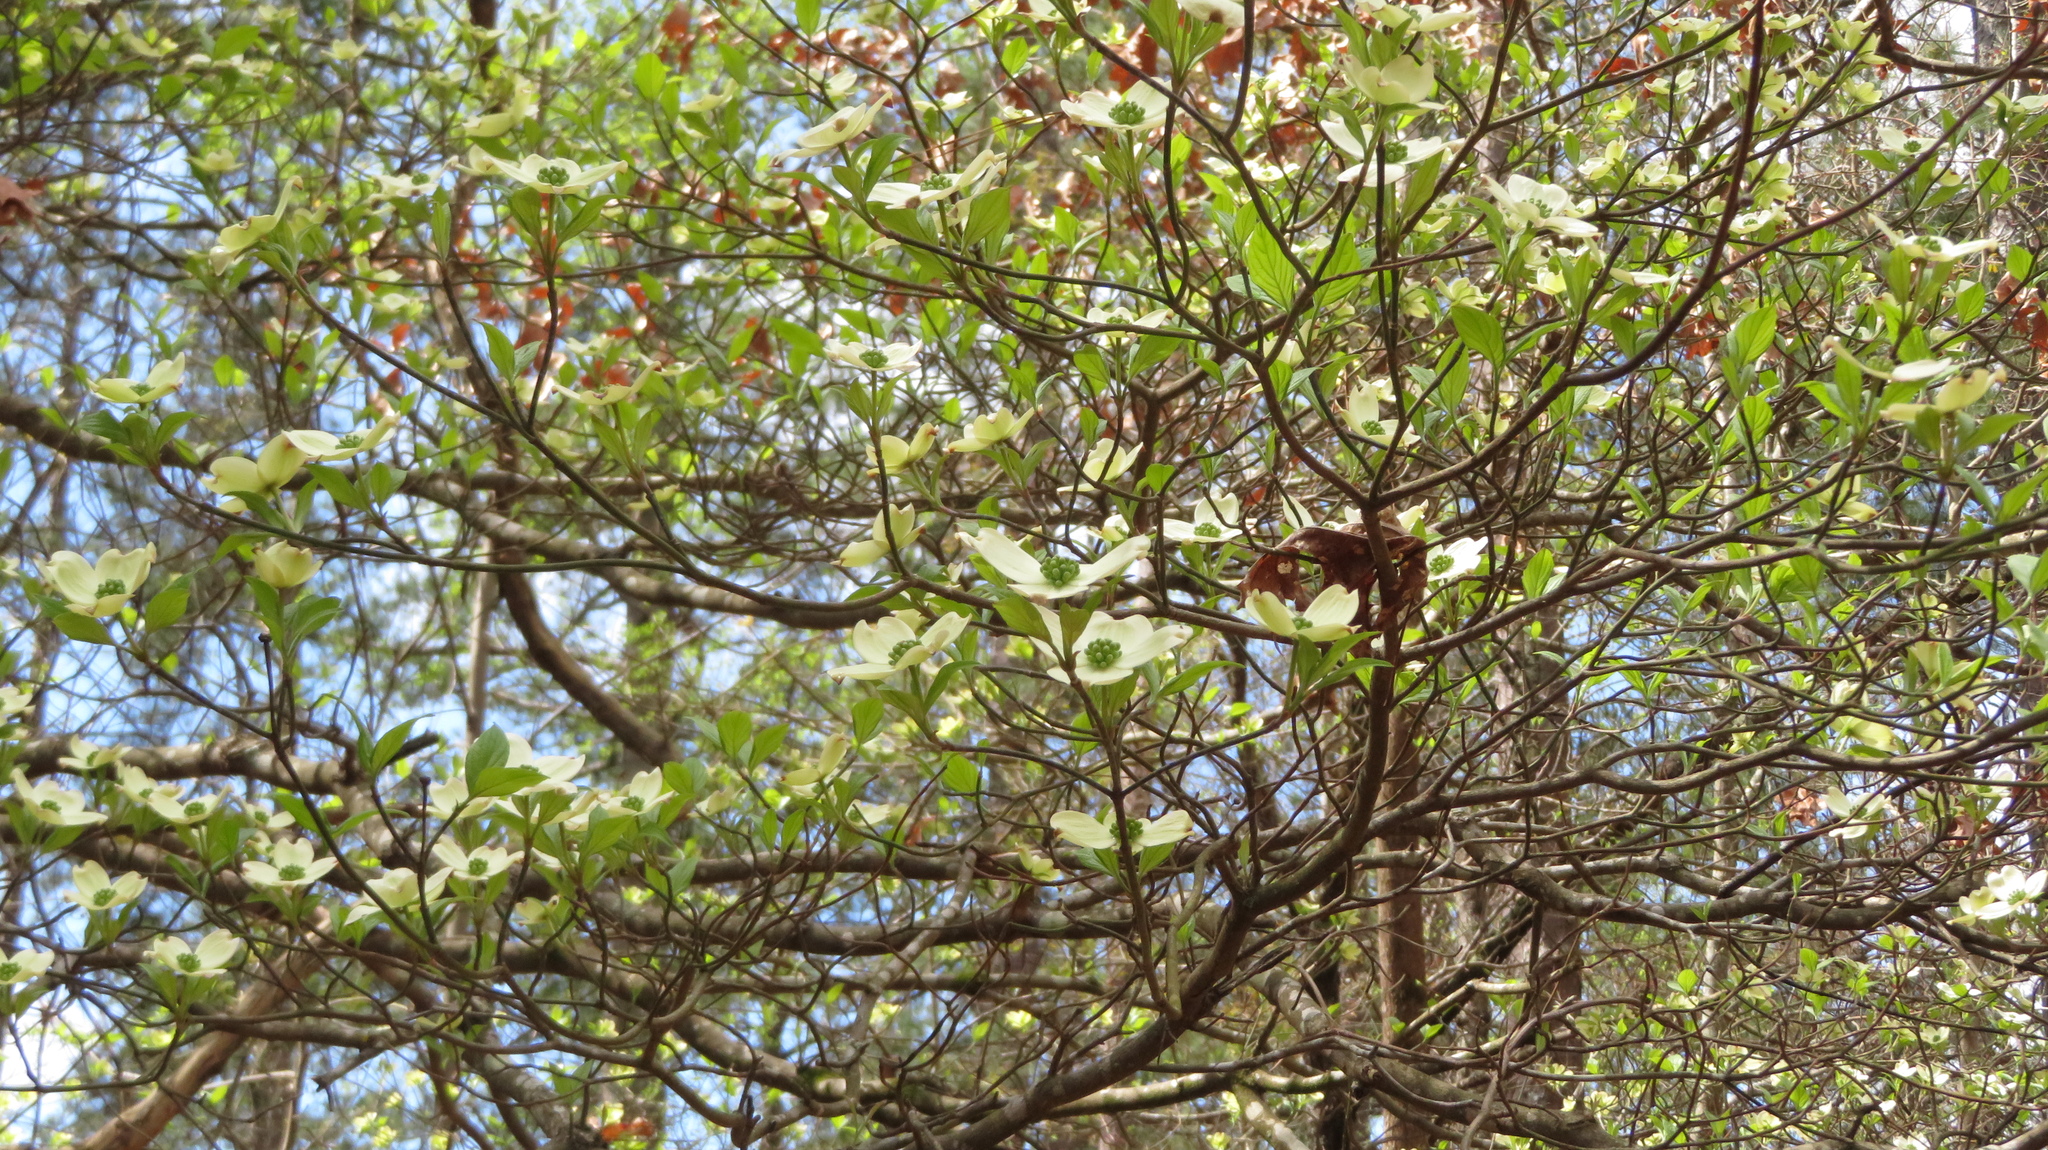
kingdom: Plantae
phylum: Tracheophyta
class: Magnoliopsida
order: Cornales
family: Cornaceae
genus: Cornus
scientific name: Cornus florida
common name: Flowering dogwood
